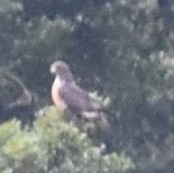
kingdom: Animalia
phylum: Chordata
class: Aves
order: Accipitriformes
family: Accipitridae
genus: Buteo
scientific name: Buteo rufofuscus
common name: Jackal buzzard
